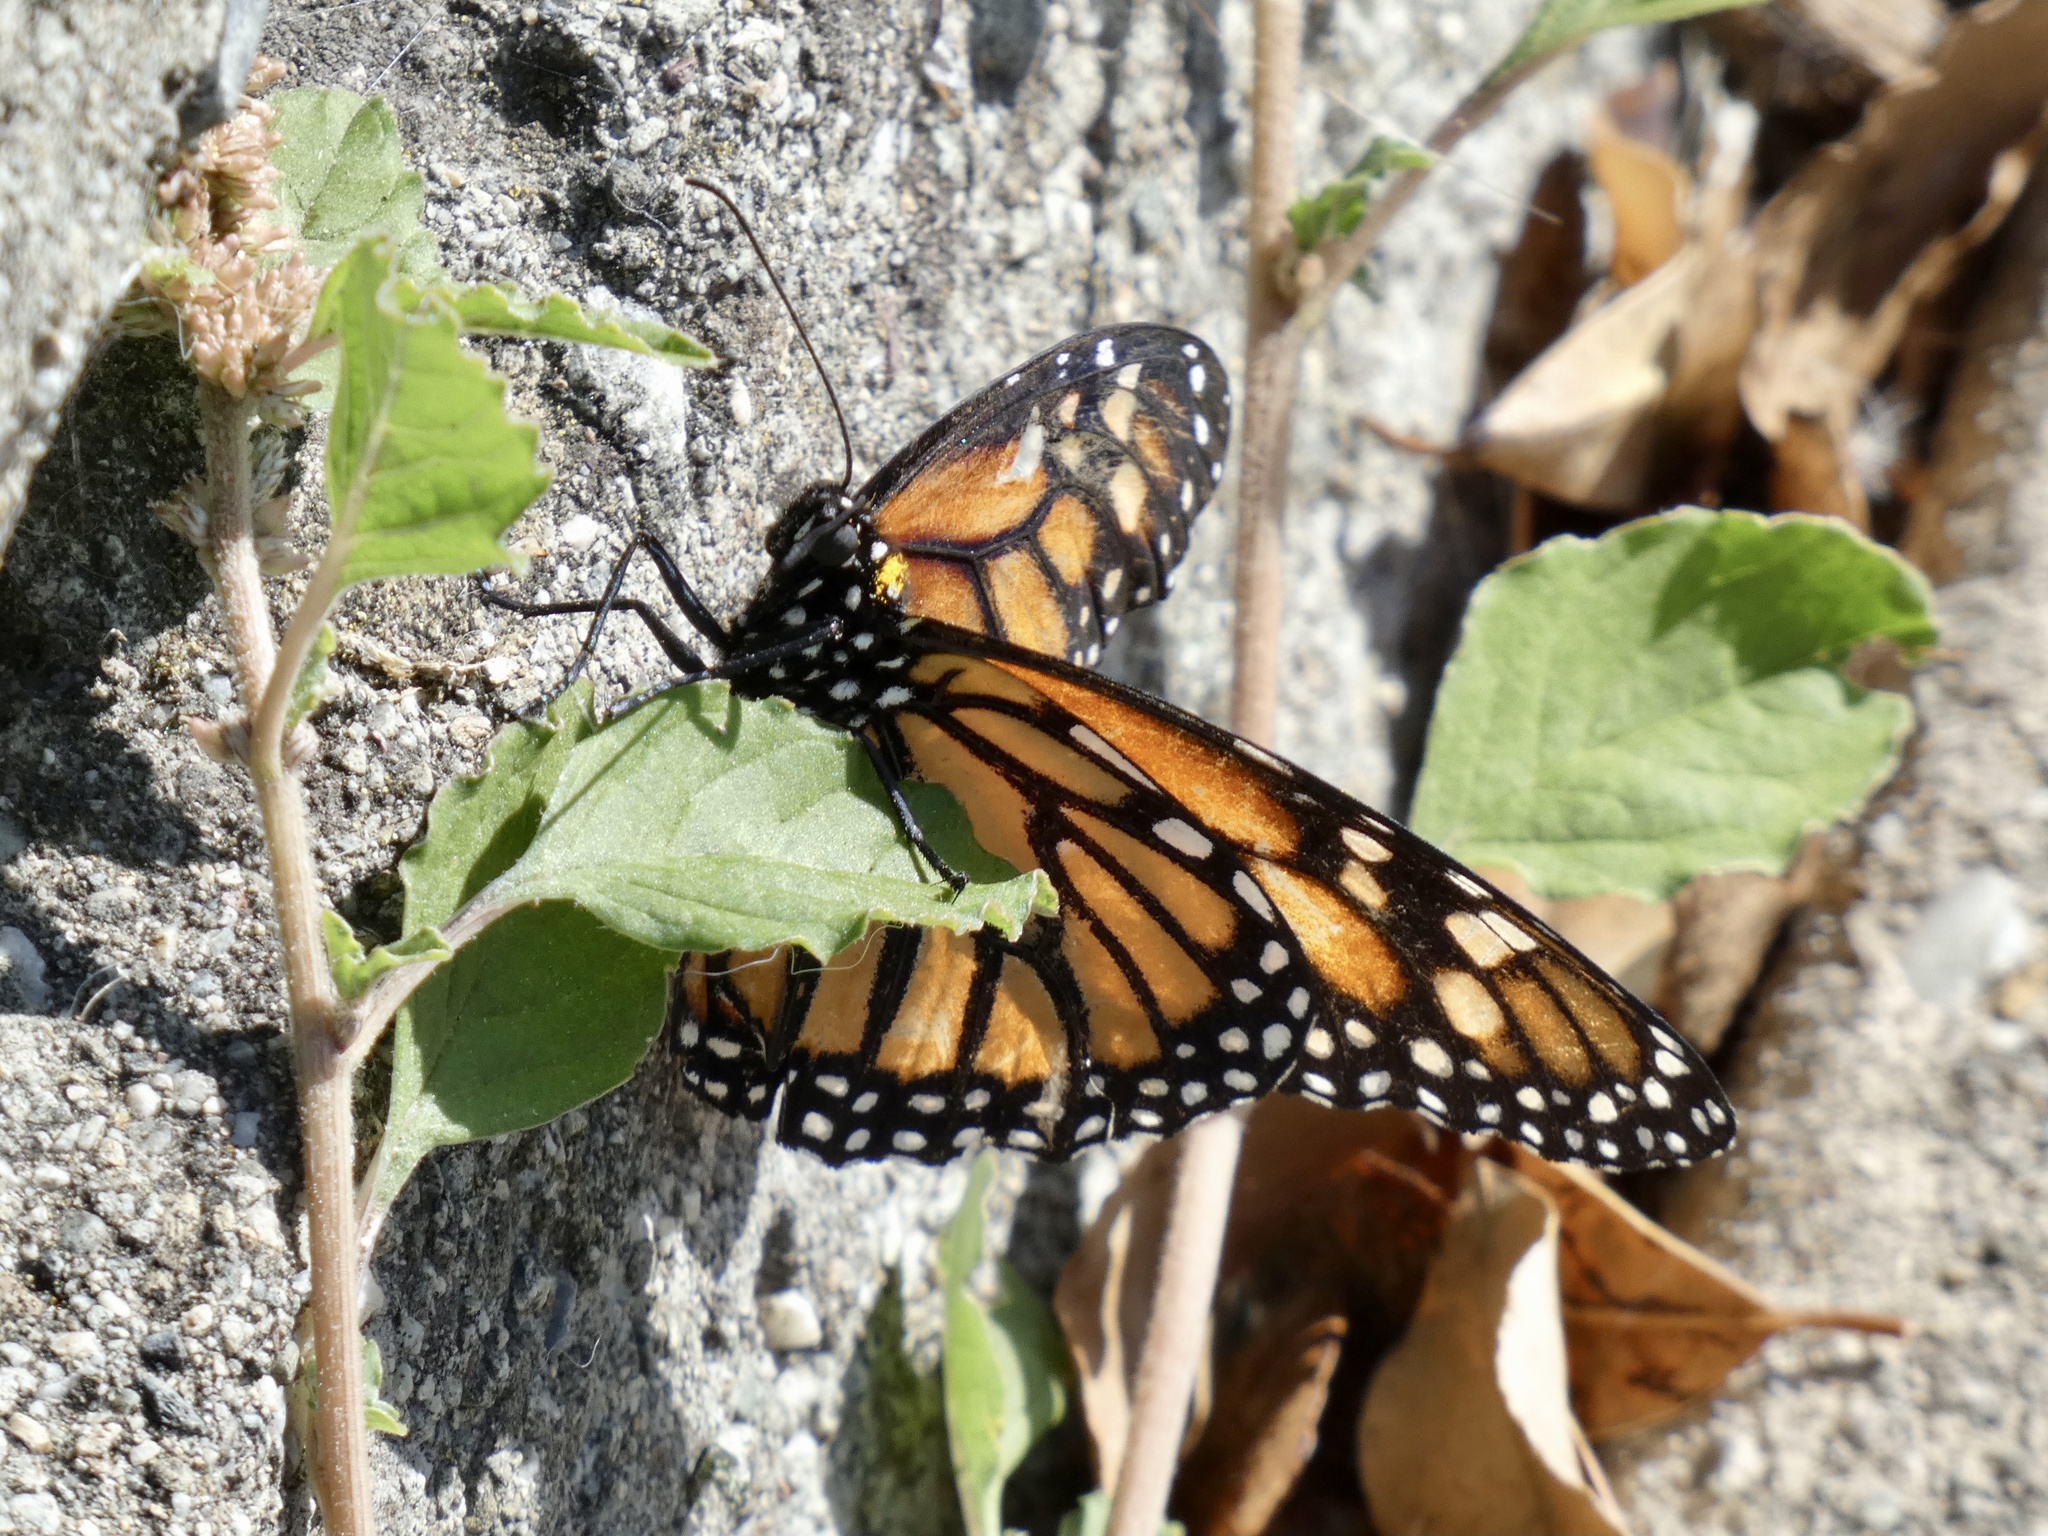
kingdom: Animalia
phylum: Arthropoda
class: Insecta
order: Lepidoptera
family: Nymphalidae
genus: Danaus
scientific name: Danaus plexippus
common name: Monarch
